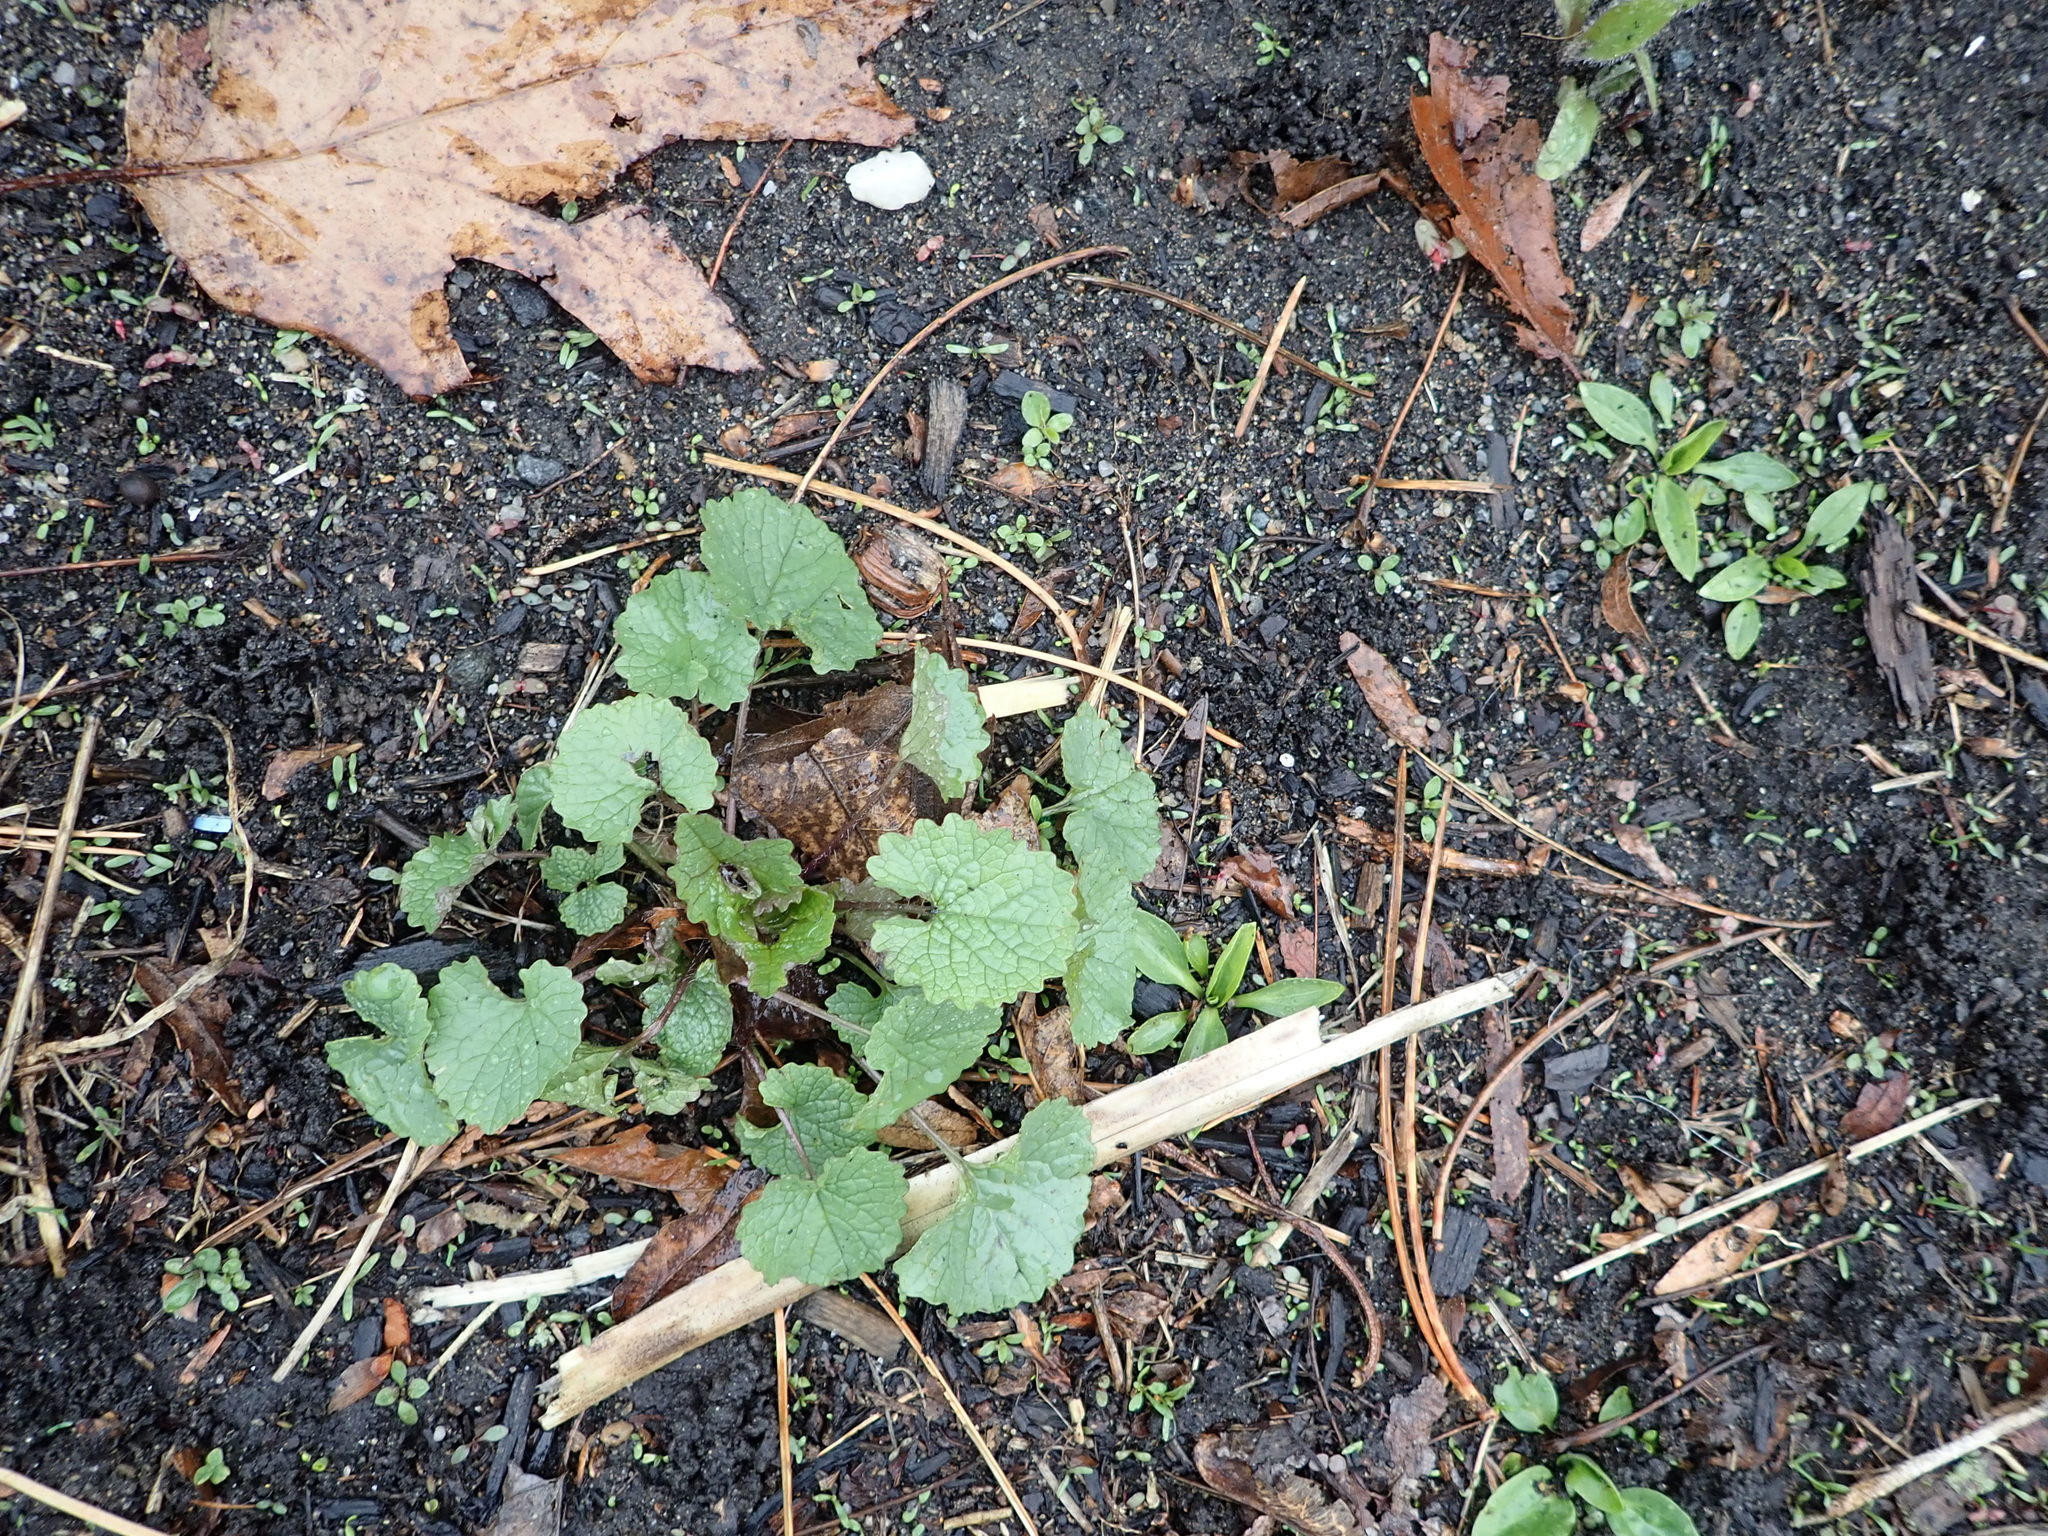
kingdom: Plantae
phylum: Tracheophyta
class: Magnoliopsida
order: Brassicales
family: Brassicaceae
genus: Alliaria
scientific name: Alliaria petiolata
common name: Garlic mustard
